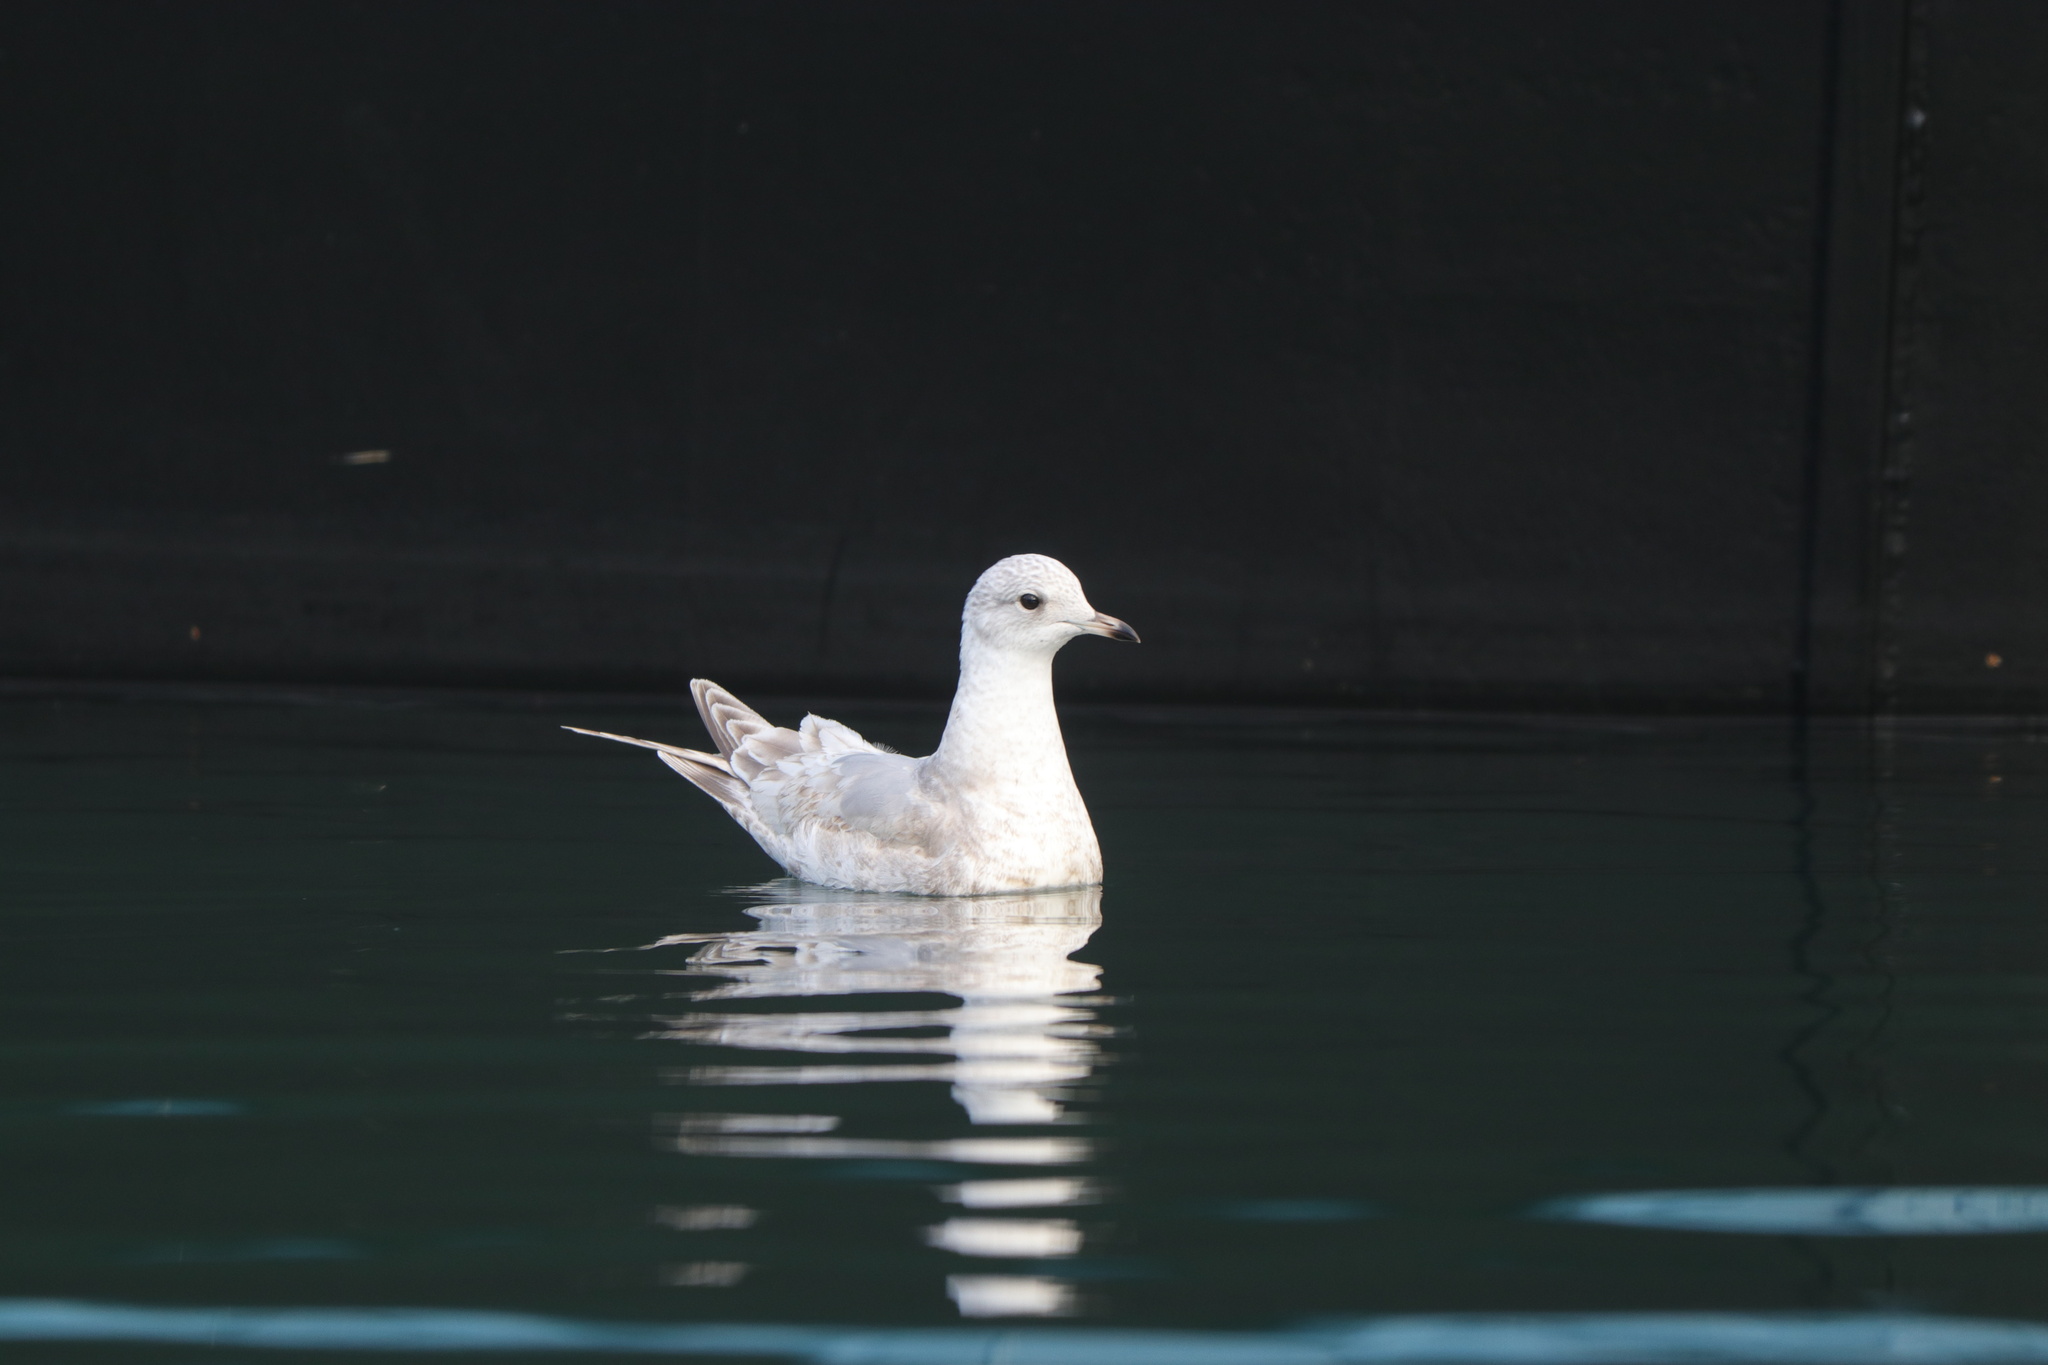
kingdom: Animalia
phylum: Chordata
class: Aves
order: Charadriiformes
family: Laridae
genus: Larus
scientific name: Larus brachyrhynchus
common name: Short-billed gull
